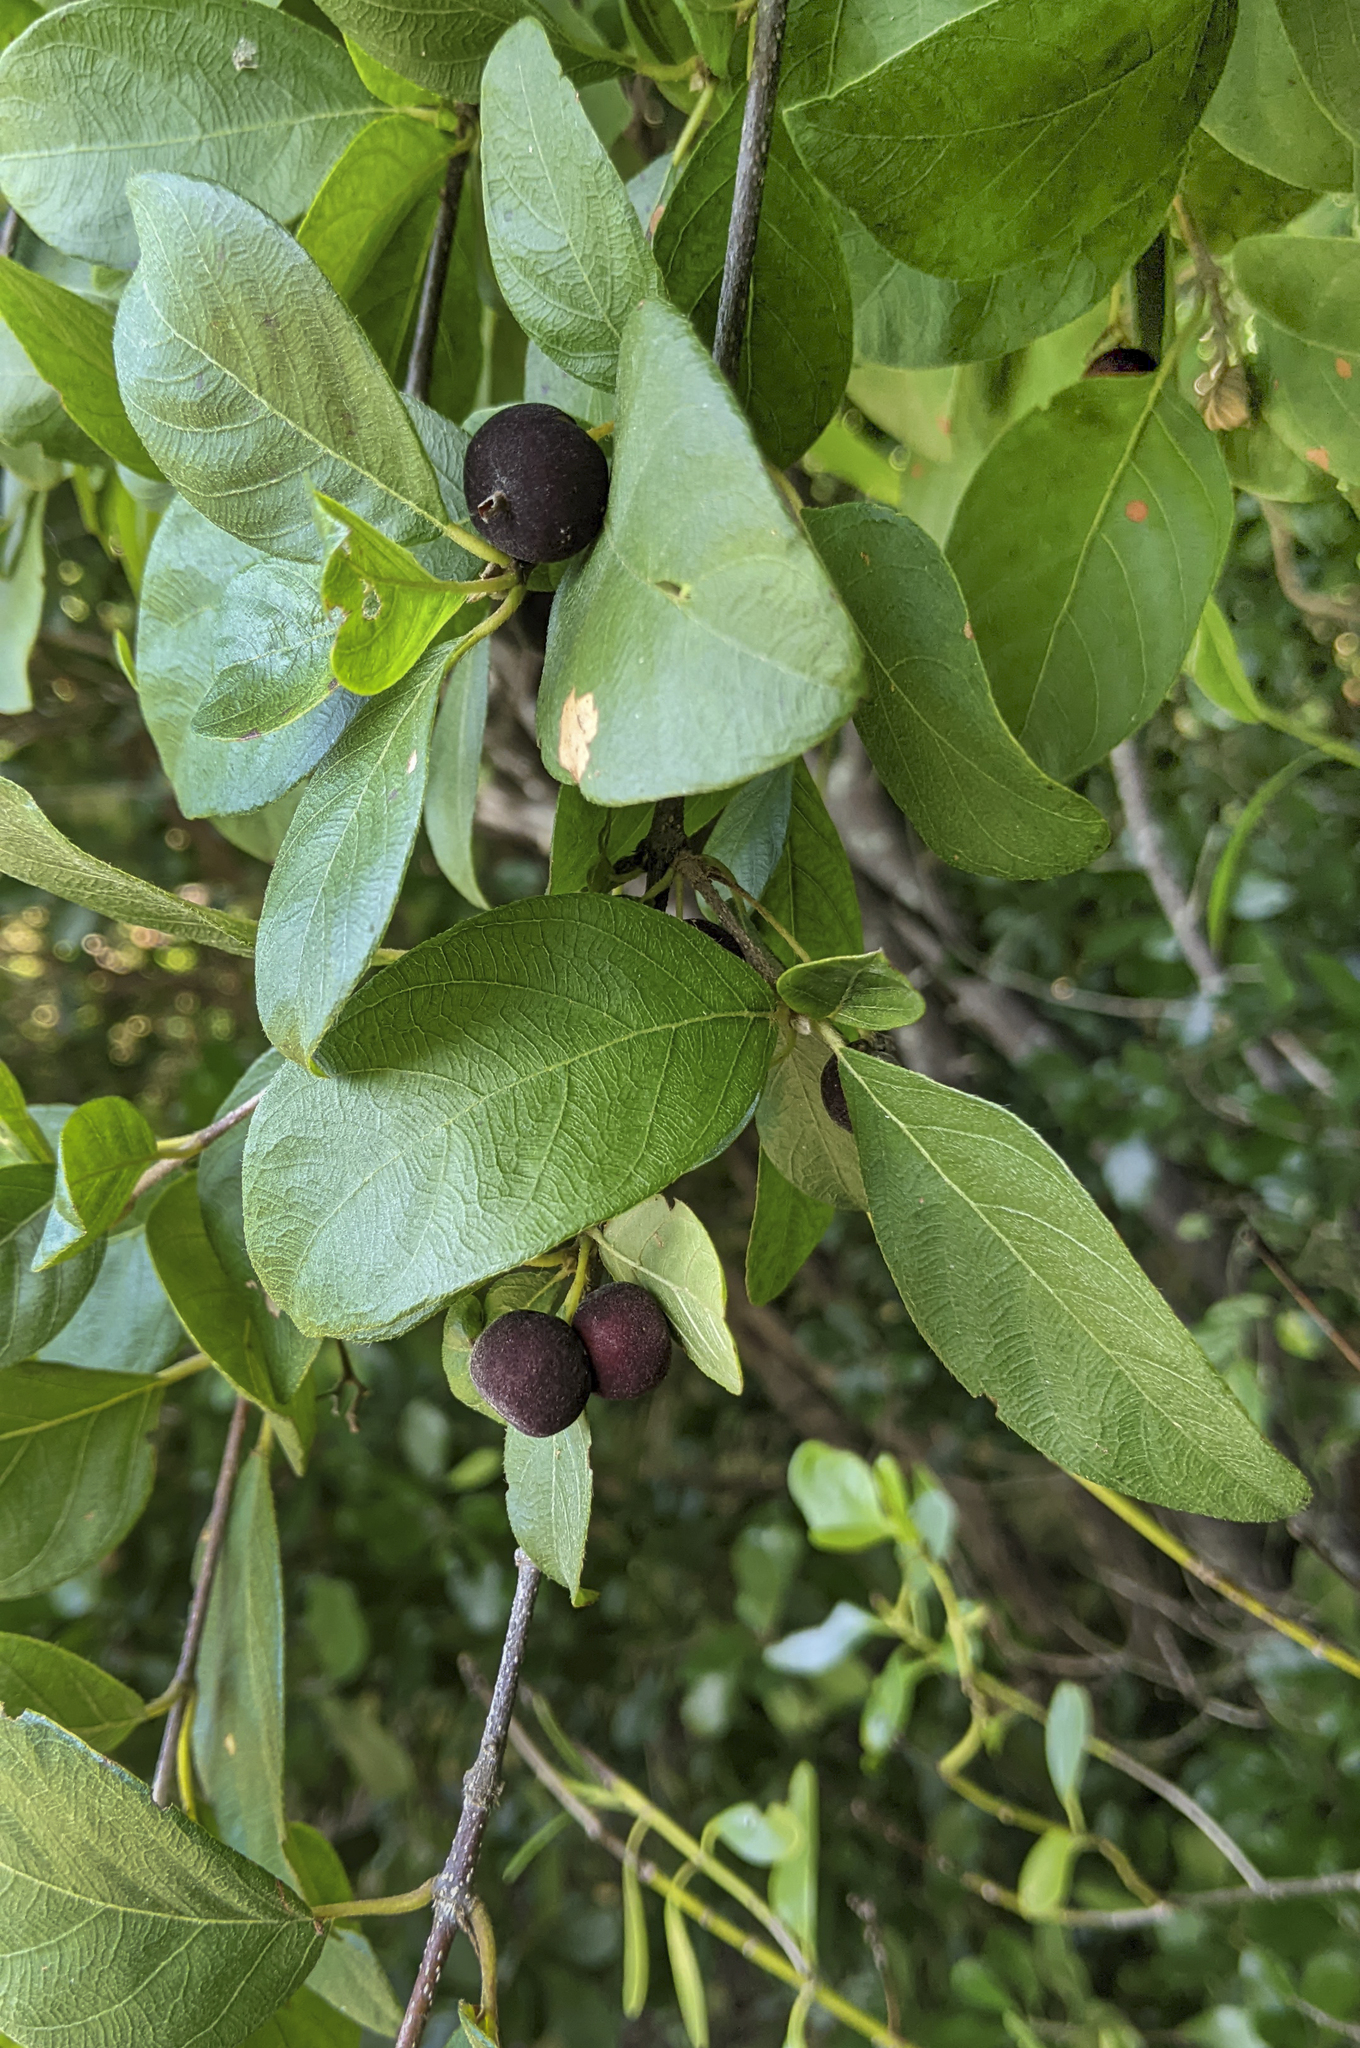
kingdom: Plantae
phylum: Tracheophyta
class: Magnoliopsida
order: Gentianales
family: Rubiaceae
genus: Guettarda
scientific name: Guettarda elliptica
